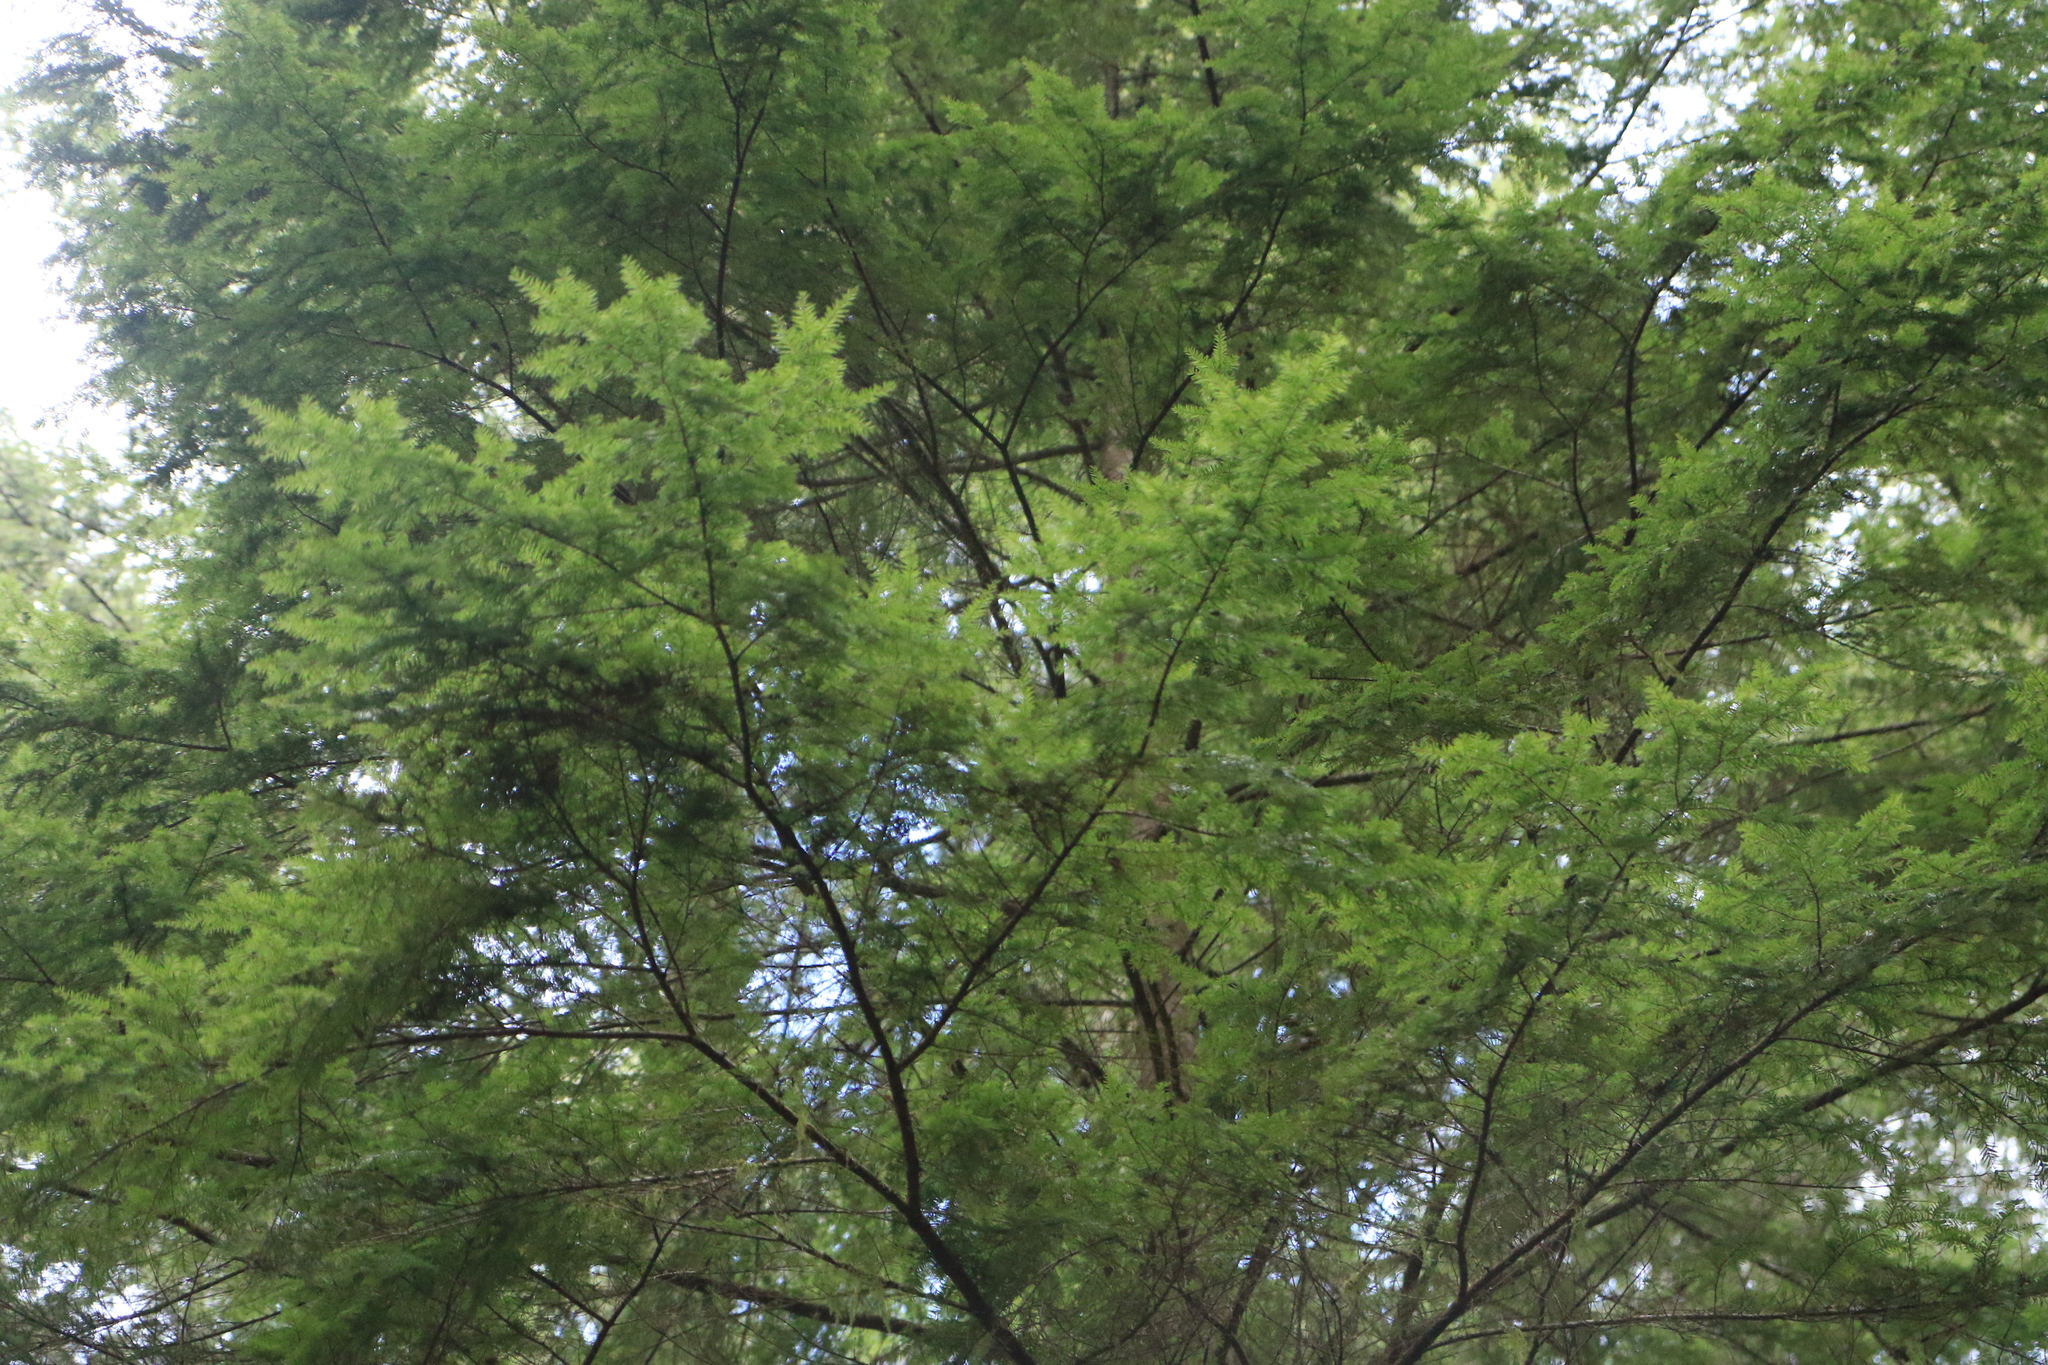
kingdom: Plantae
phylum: Tracheophyta
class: Pinopsida
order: Pinales
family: Pinaceae
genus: Tsuga
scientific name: Tsuga heterophylla
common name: Western hemlock
